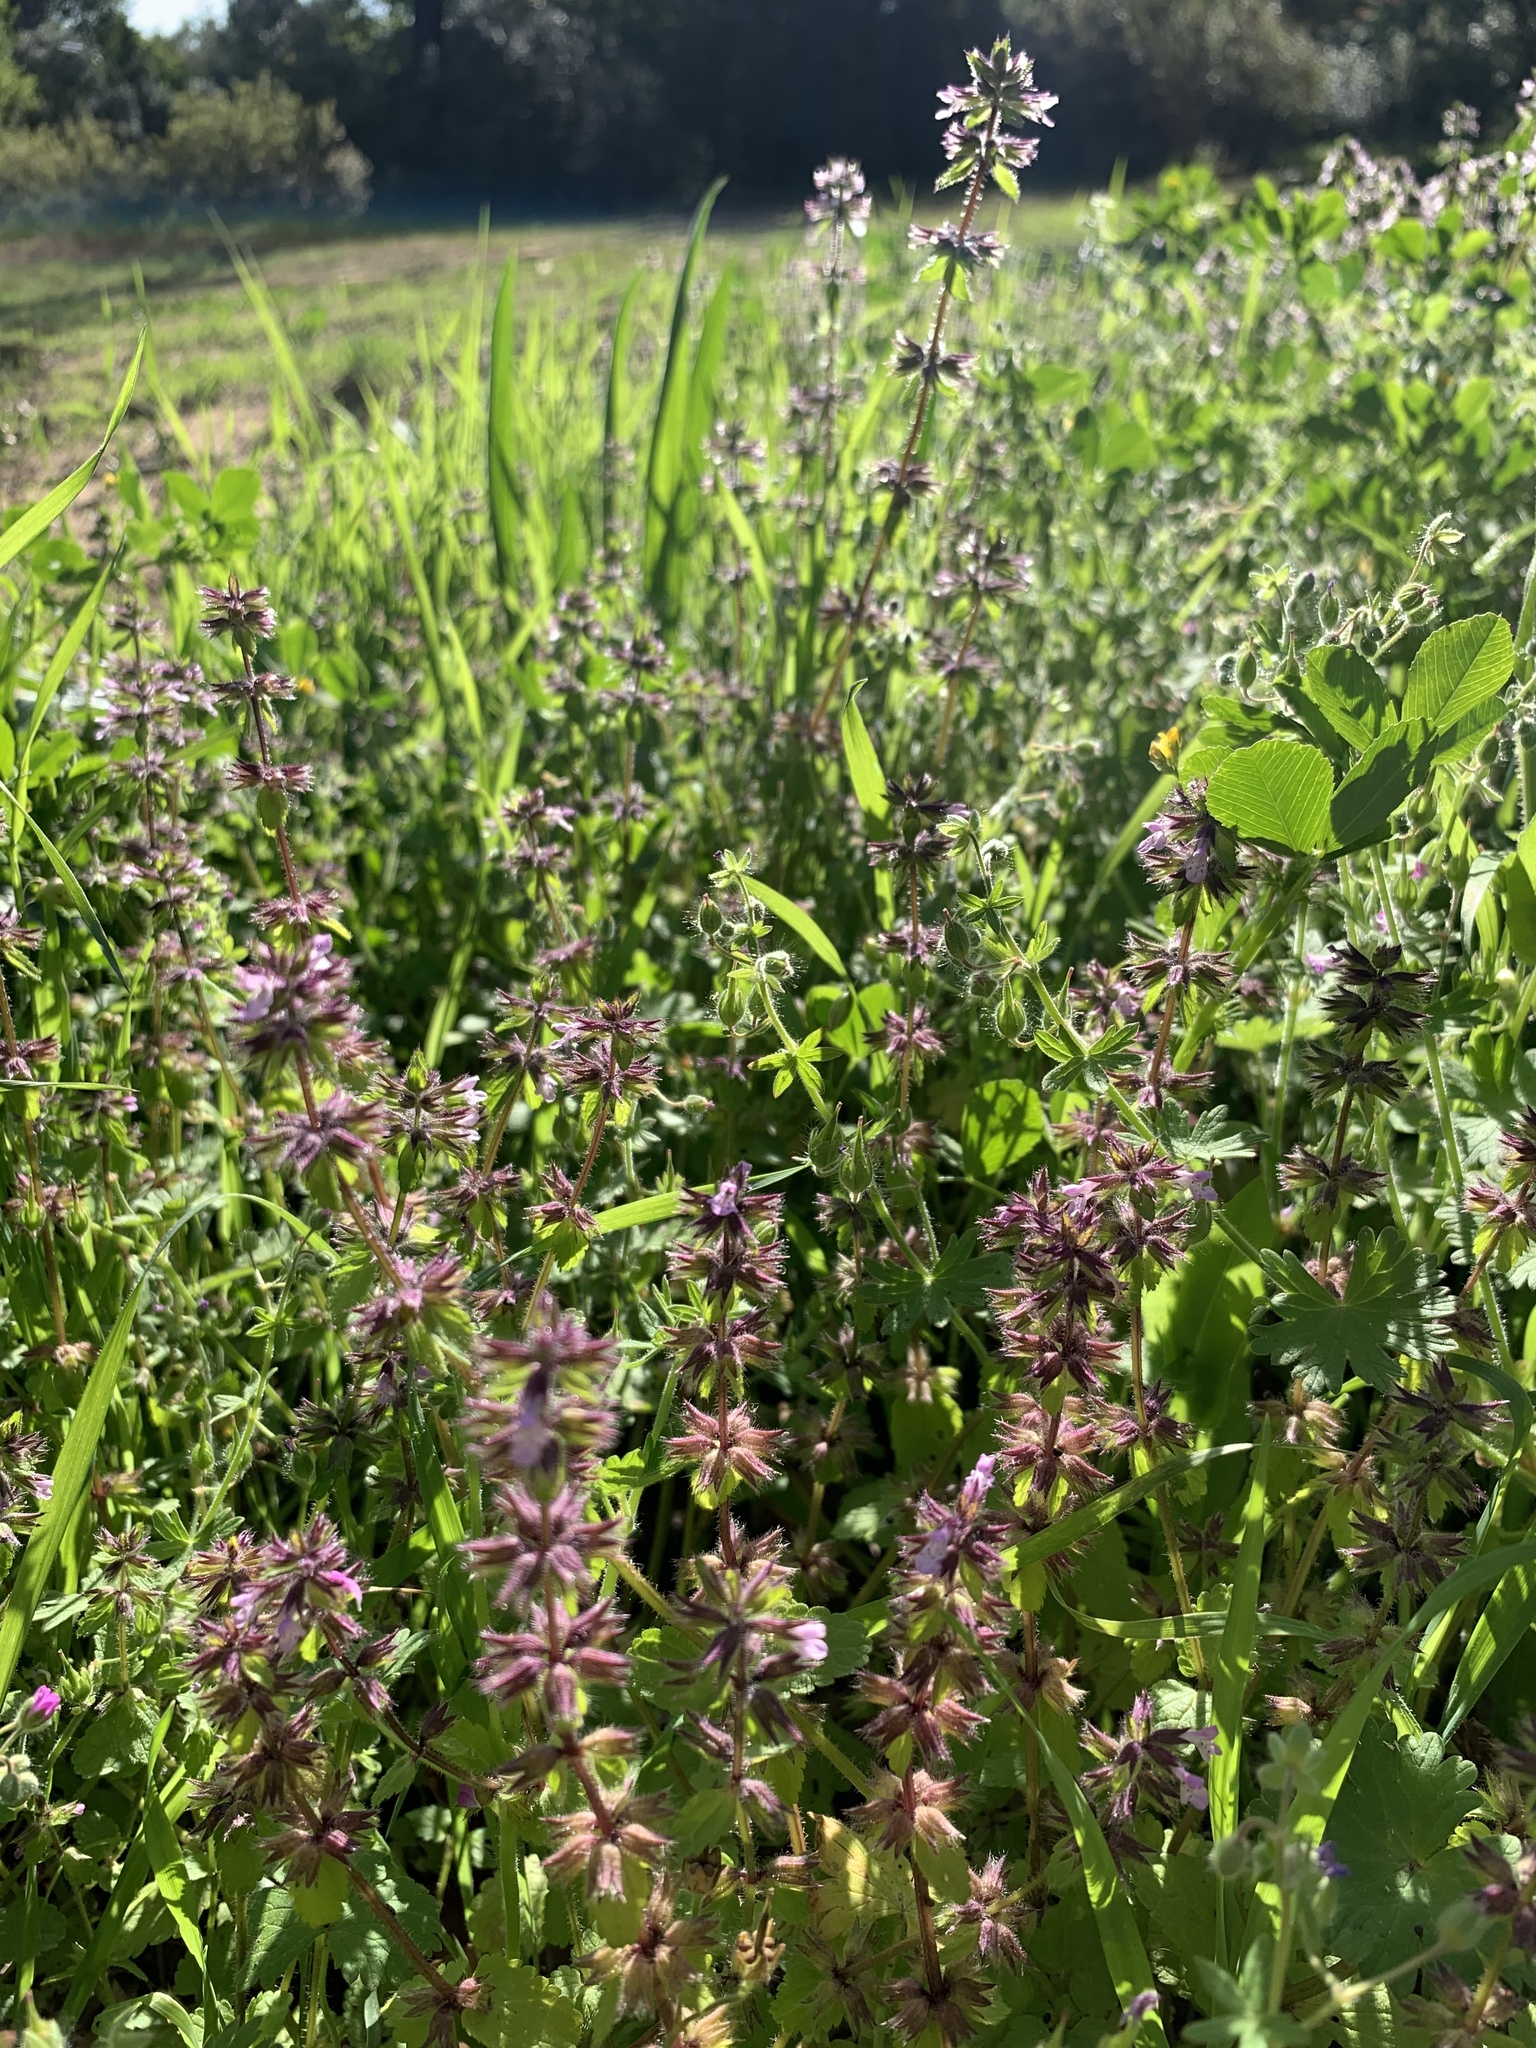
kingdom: Plantae
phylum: Tracheophyta
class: Magnoliopsida
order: Lamiales
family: Lamiaceae
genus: Stachys
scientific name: Stachys arvensis
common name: Field woundwort
